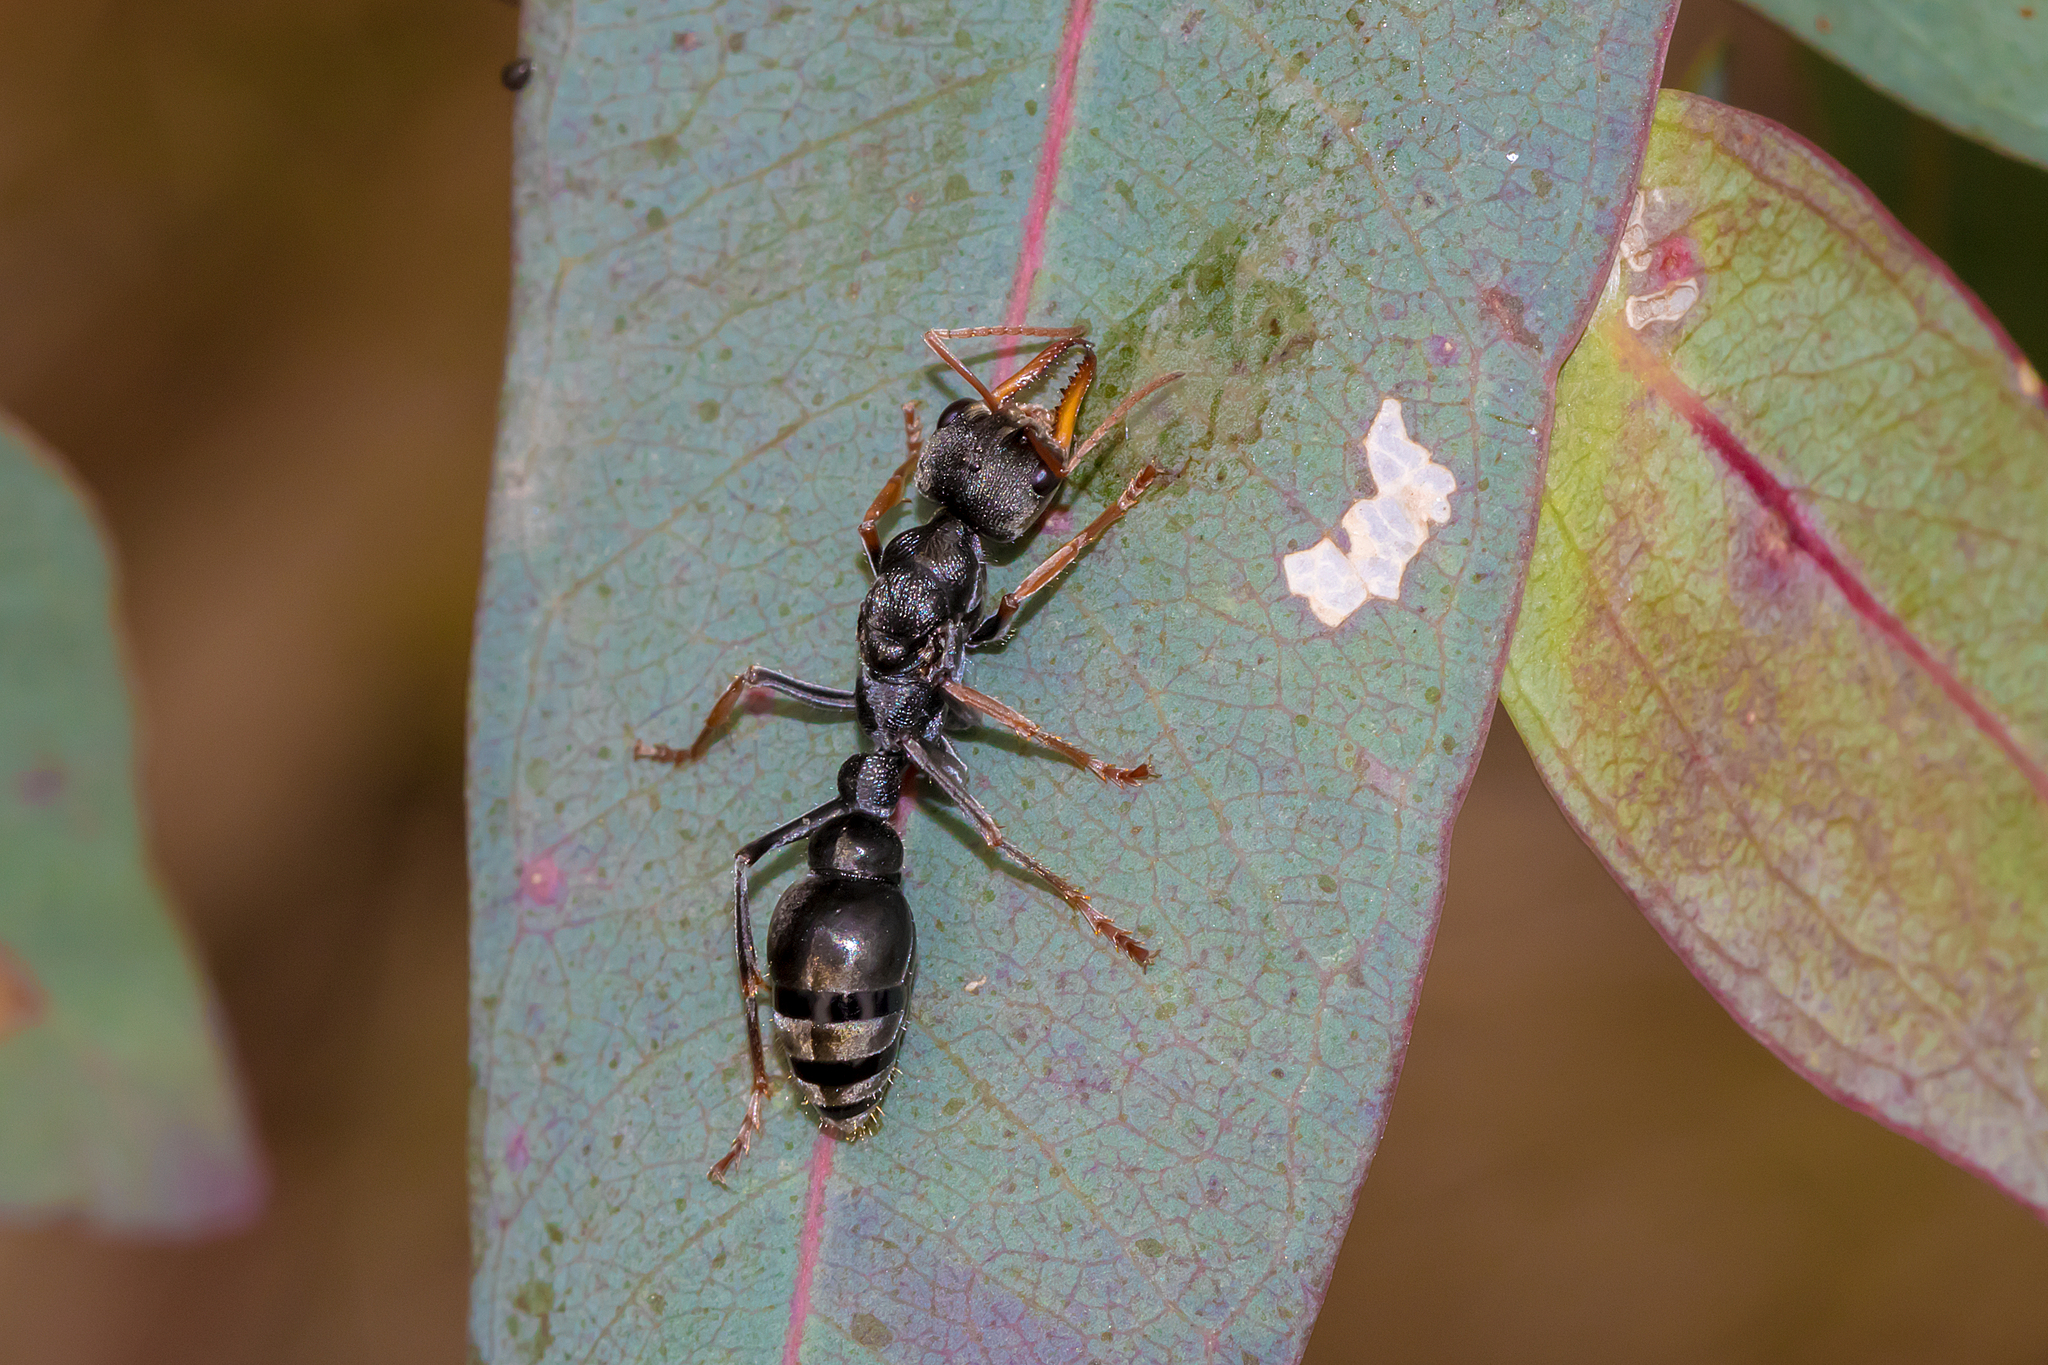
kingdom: Animalia
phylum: Arthropoda
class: Insecta
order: Hymenoptera
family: Formicidae
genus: Myrmecia
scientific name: Myrmecia pilosula
